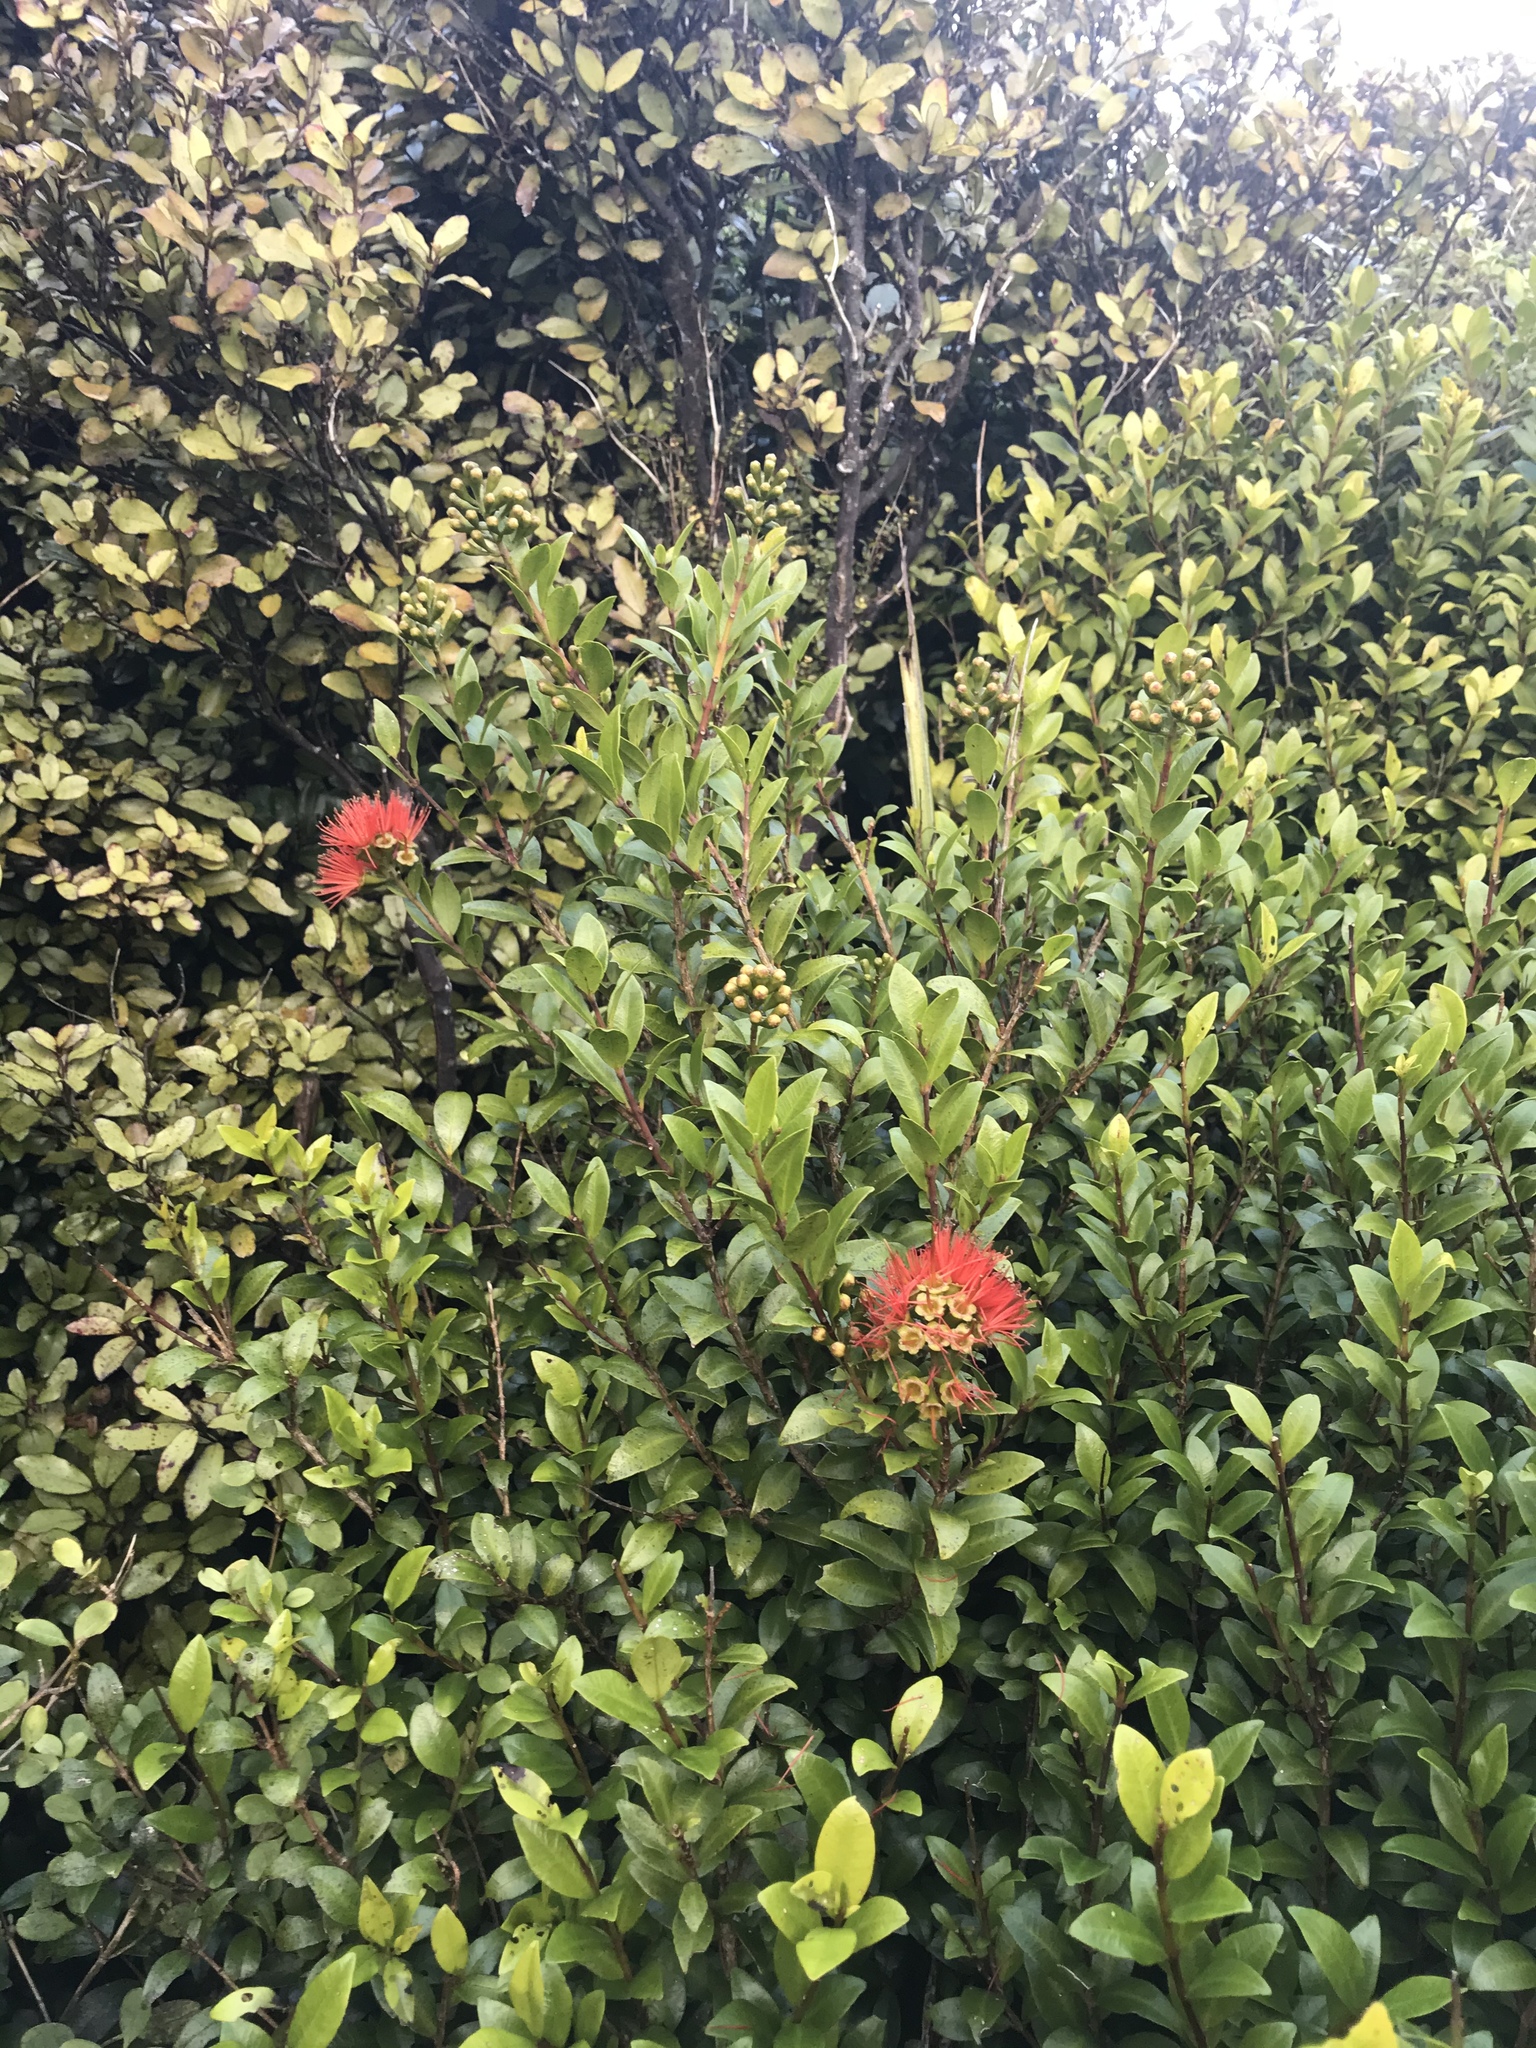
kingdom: Plantae
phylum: Tracheophyta
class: Magnoliopsida
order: Myrtales
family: Myrtaceae
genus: Metrosideros
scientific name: Metrosideros fulgens
